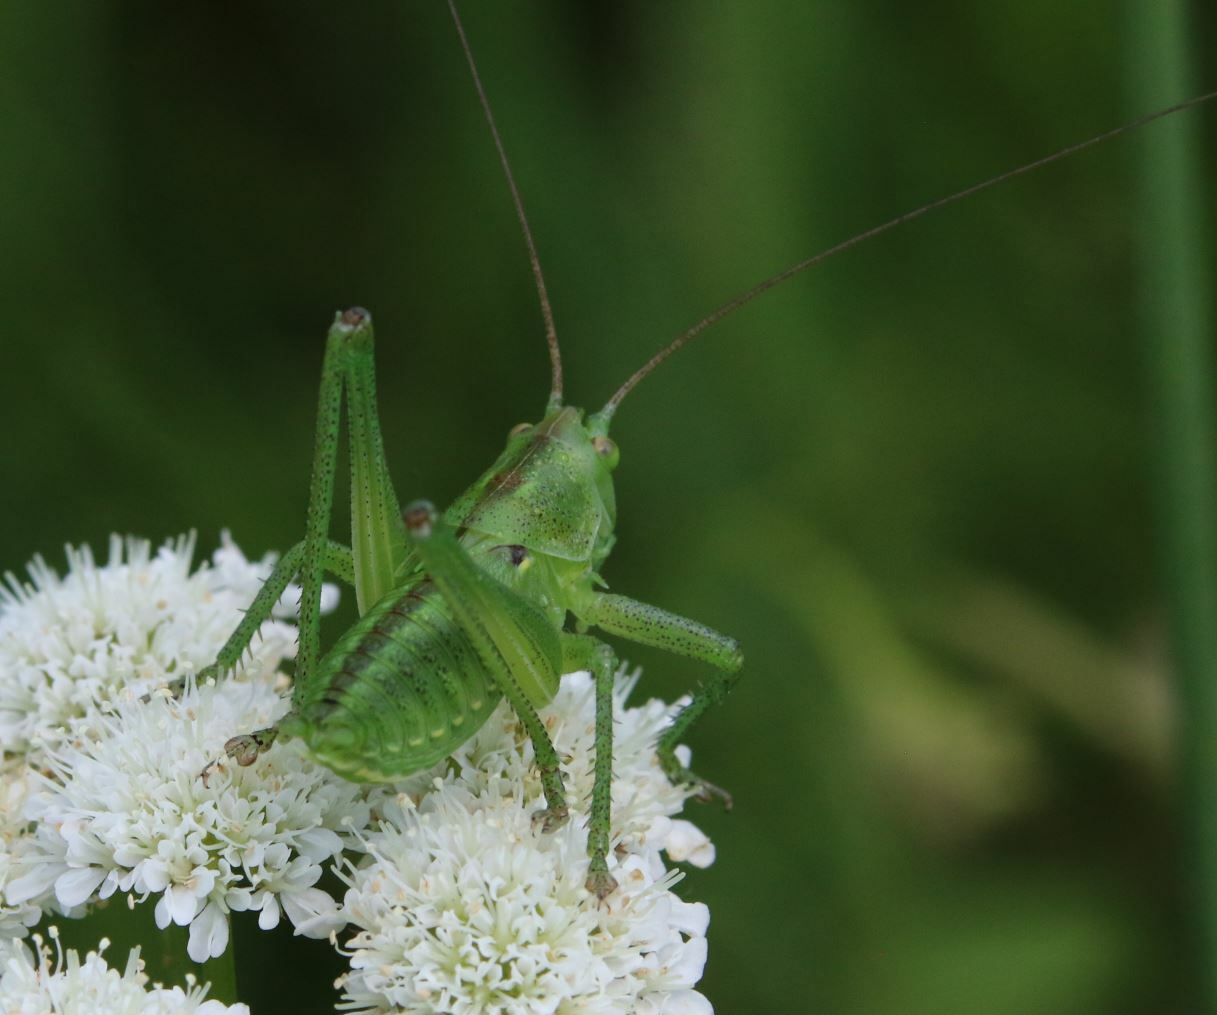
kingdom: Animalia
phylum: Arthropoda
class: Insecta
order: Orthoptera
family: Tettigoniidae
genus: Tettigonia
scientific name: Tettigonia viridissima
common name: Great green bush-cricket
